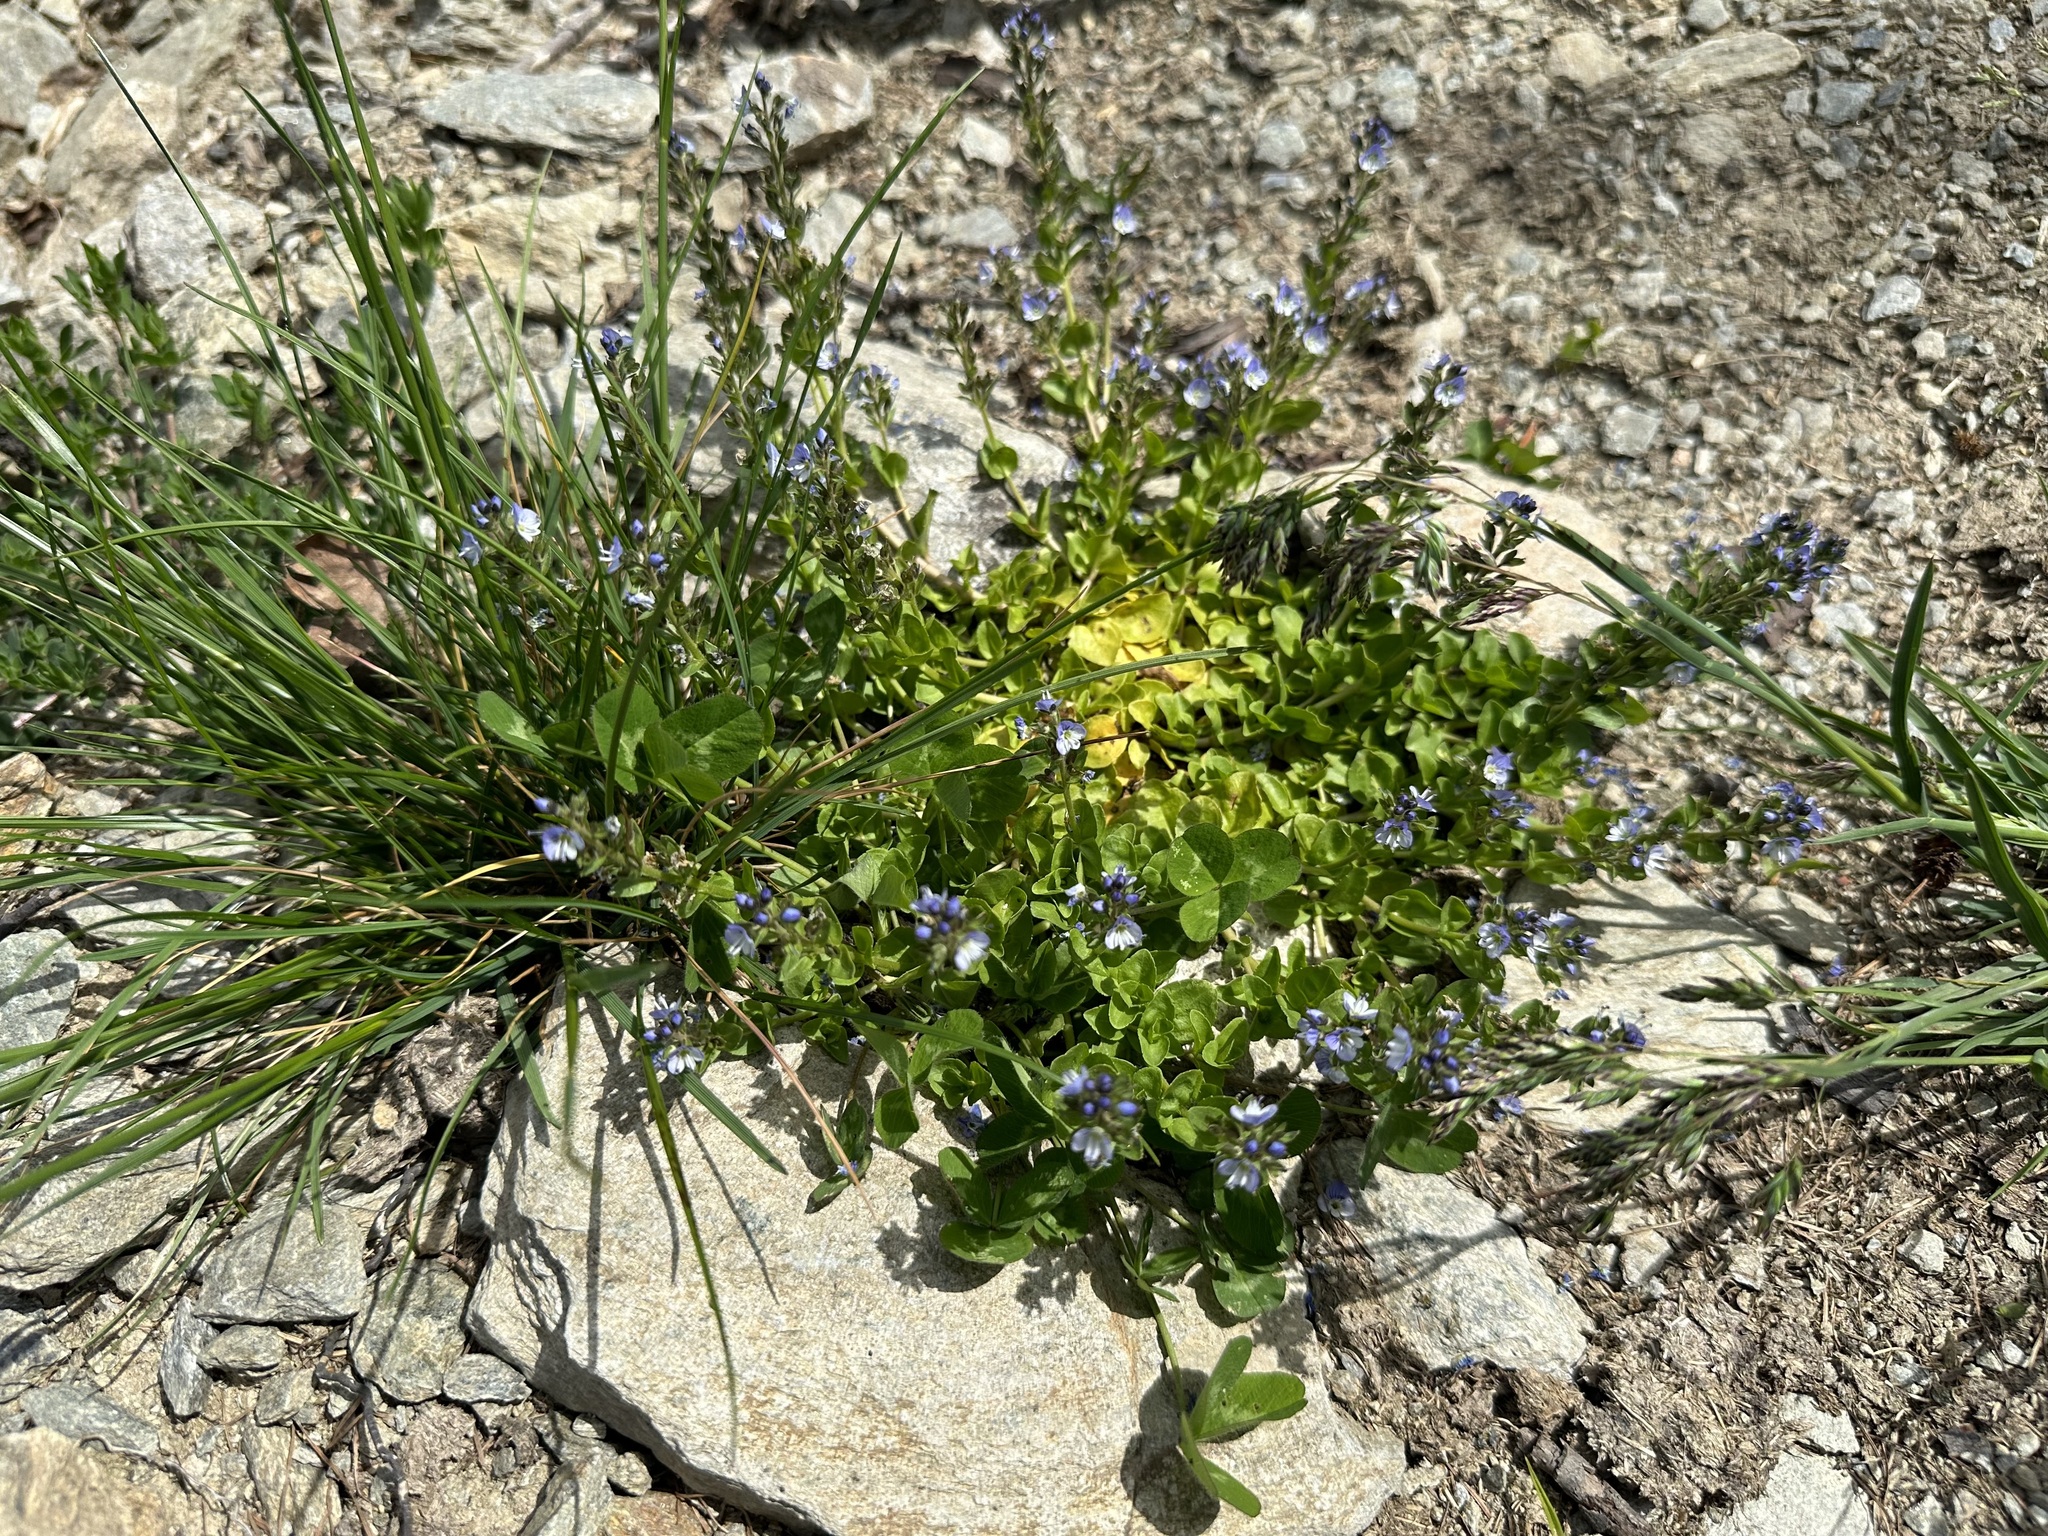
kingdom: Plantae
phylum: Tracheophyta
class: Magnoliopsida
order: Lamiales
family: Plantaginaceae
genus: Veronica
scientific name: Veronica serpyllifolia
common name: Thyme-leaved speedwell
